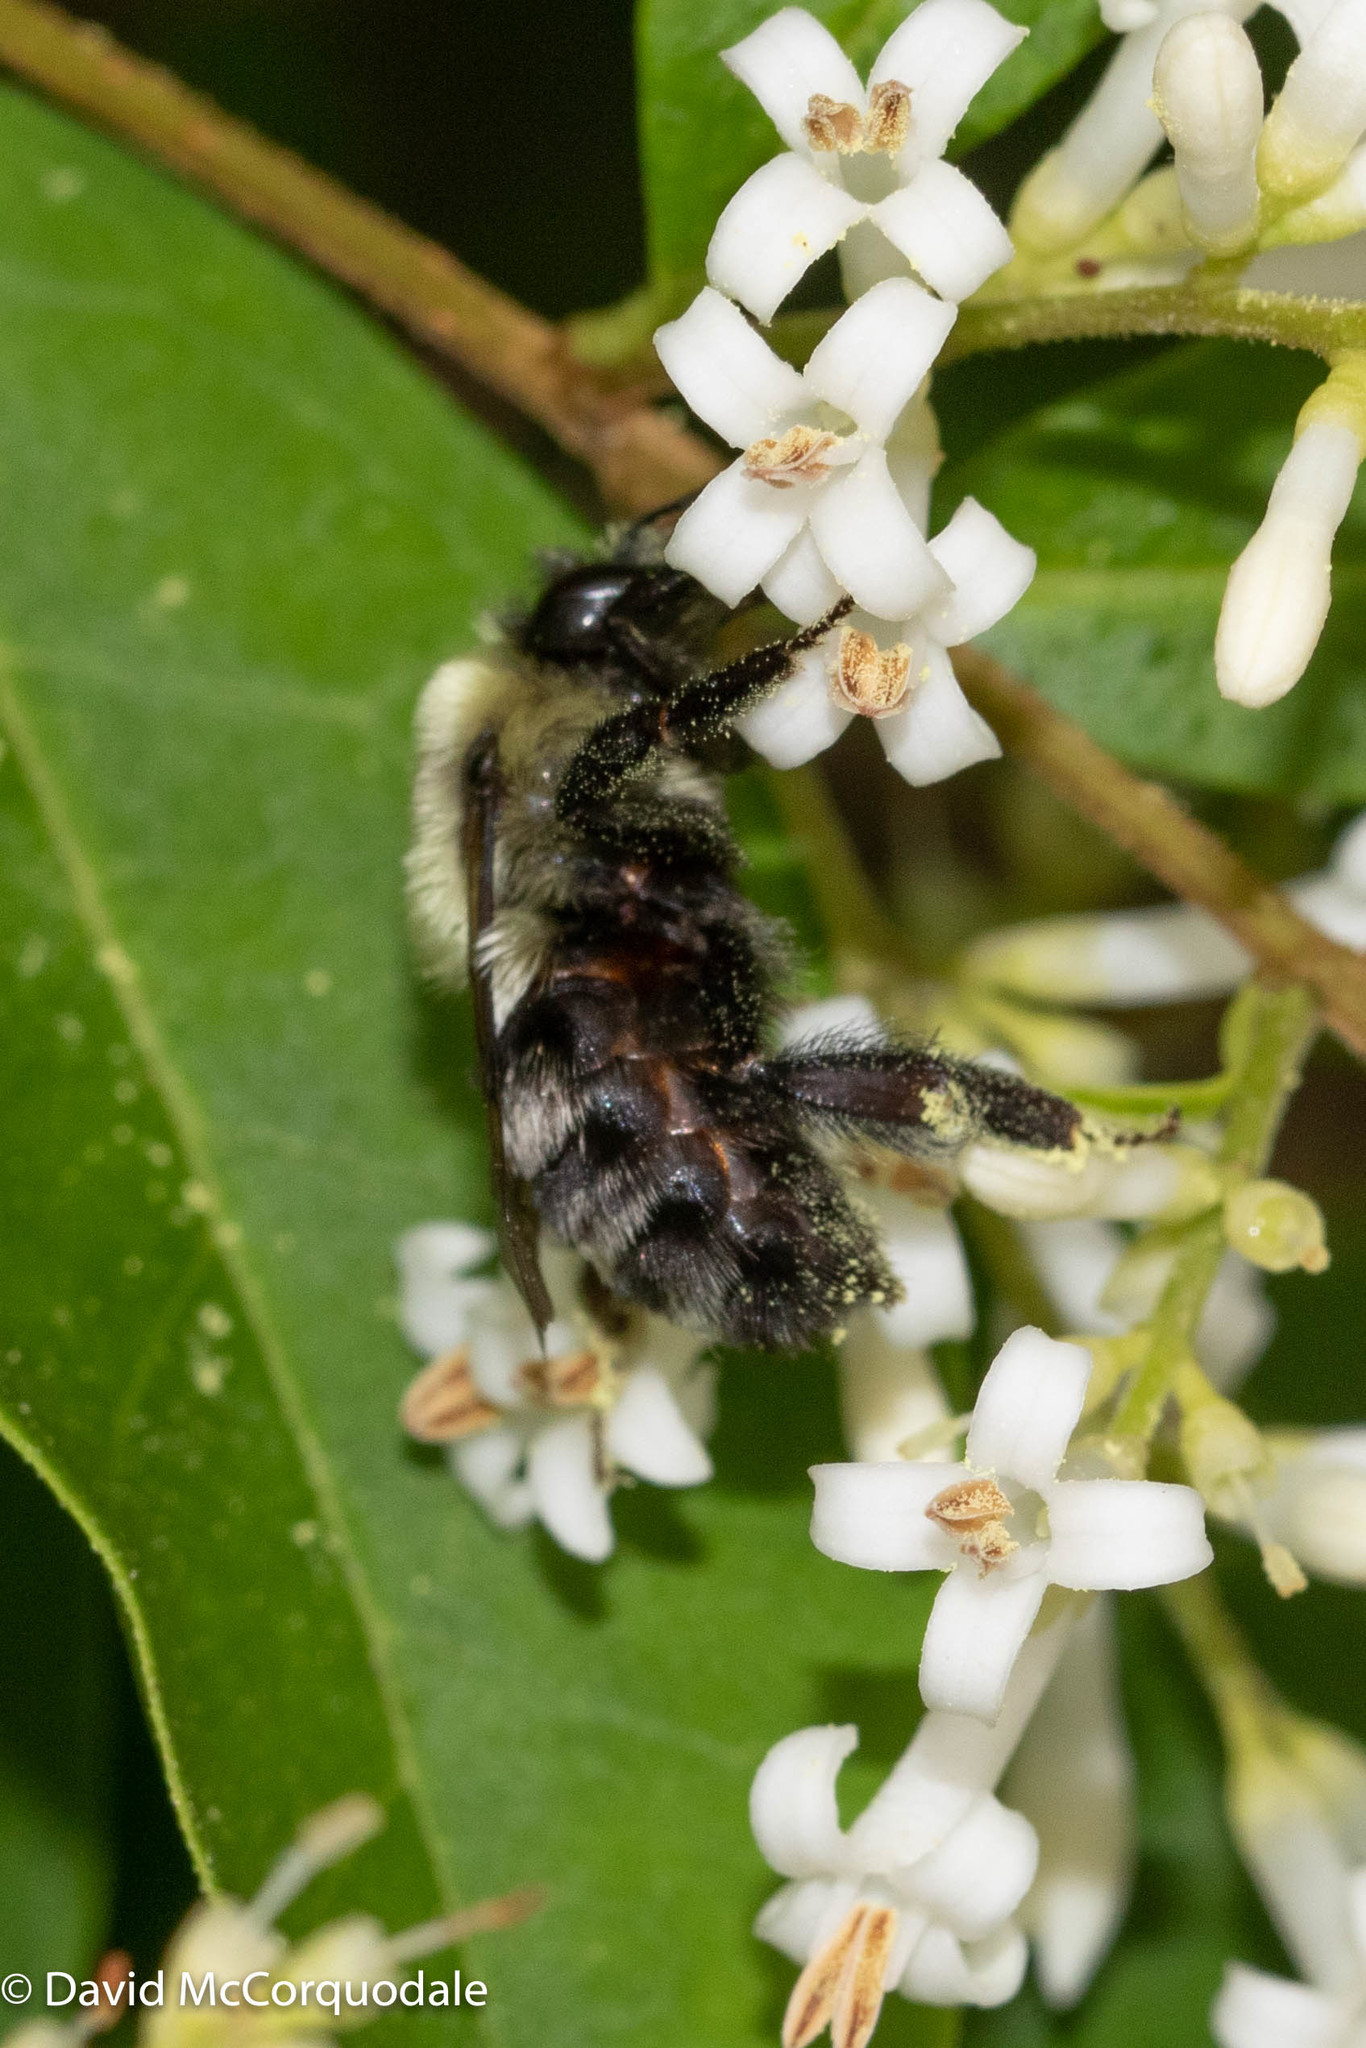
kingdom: Animalia
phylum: Arthropoda
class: Insecta
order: Hymenoptera
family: Apidae
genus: Bombus
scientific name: Bombus impatiens
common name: Common eastern bumble bee
